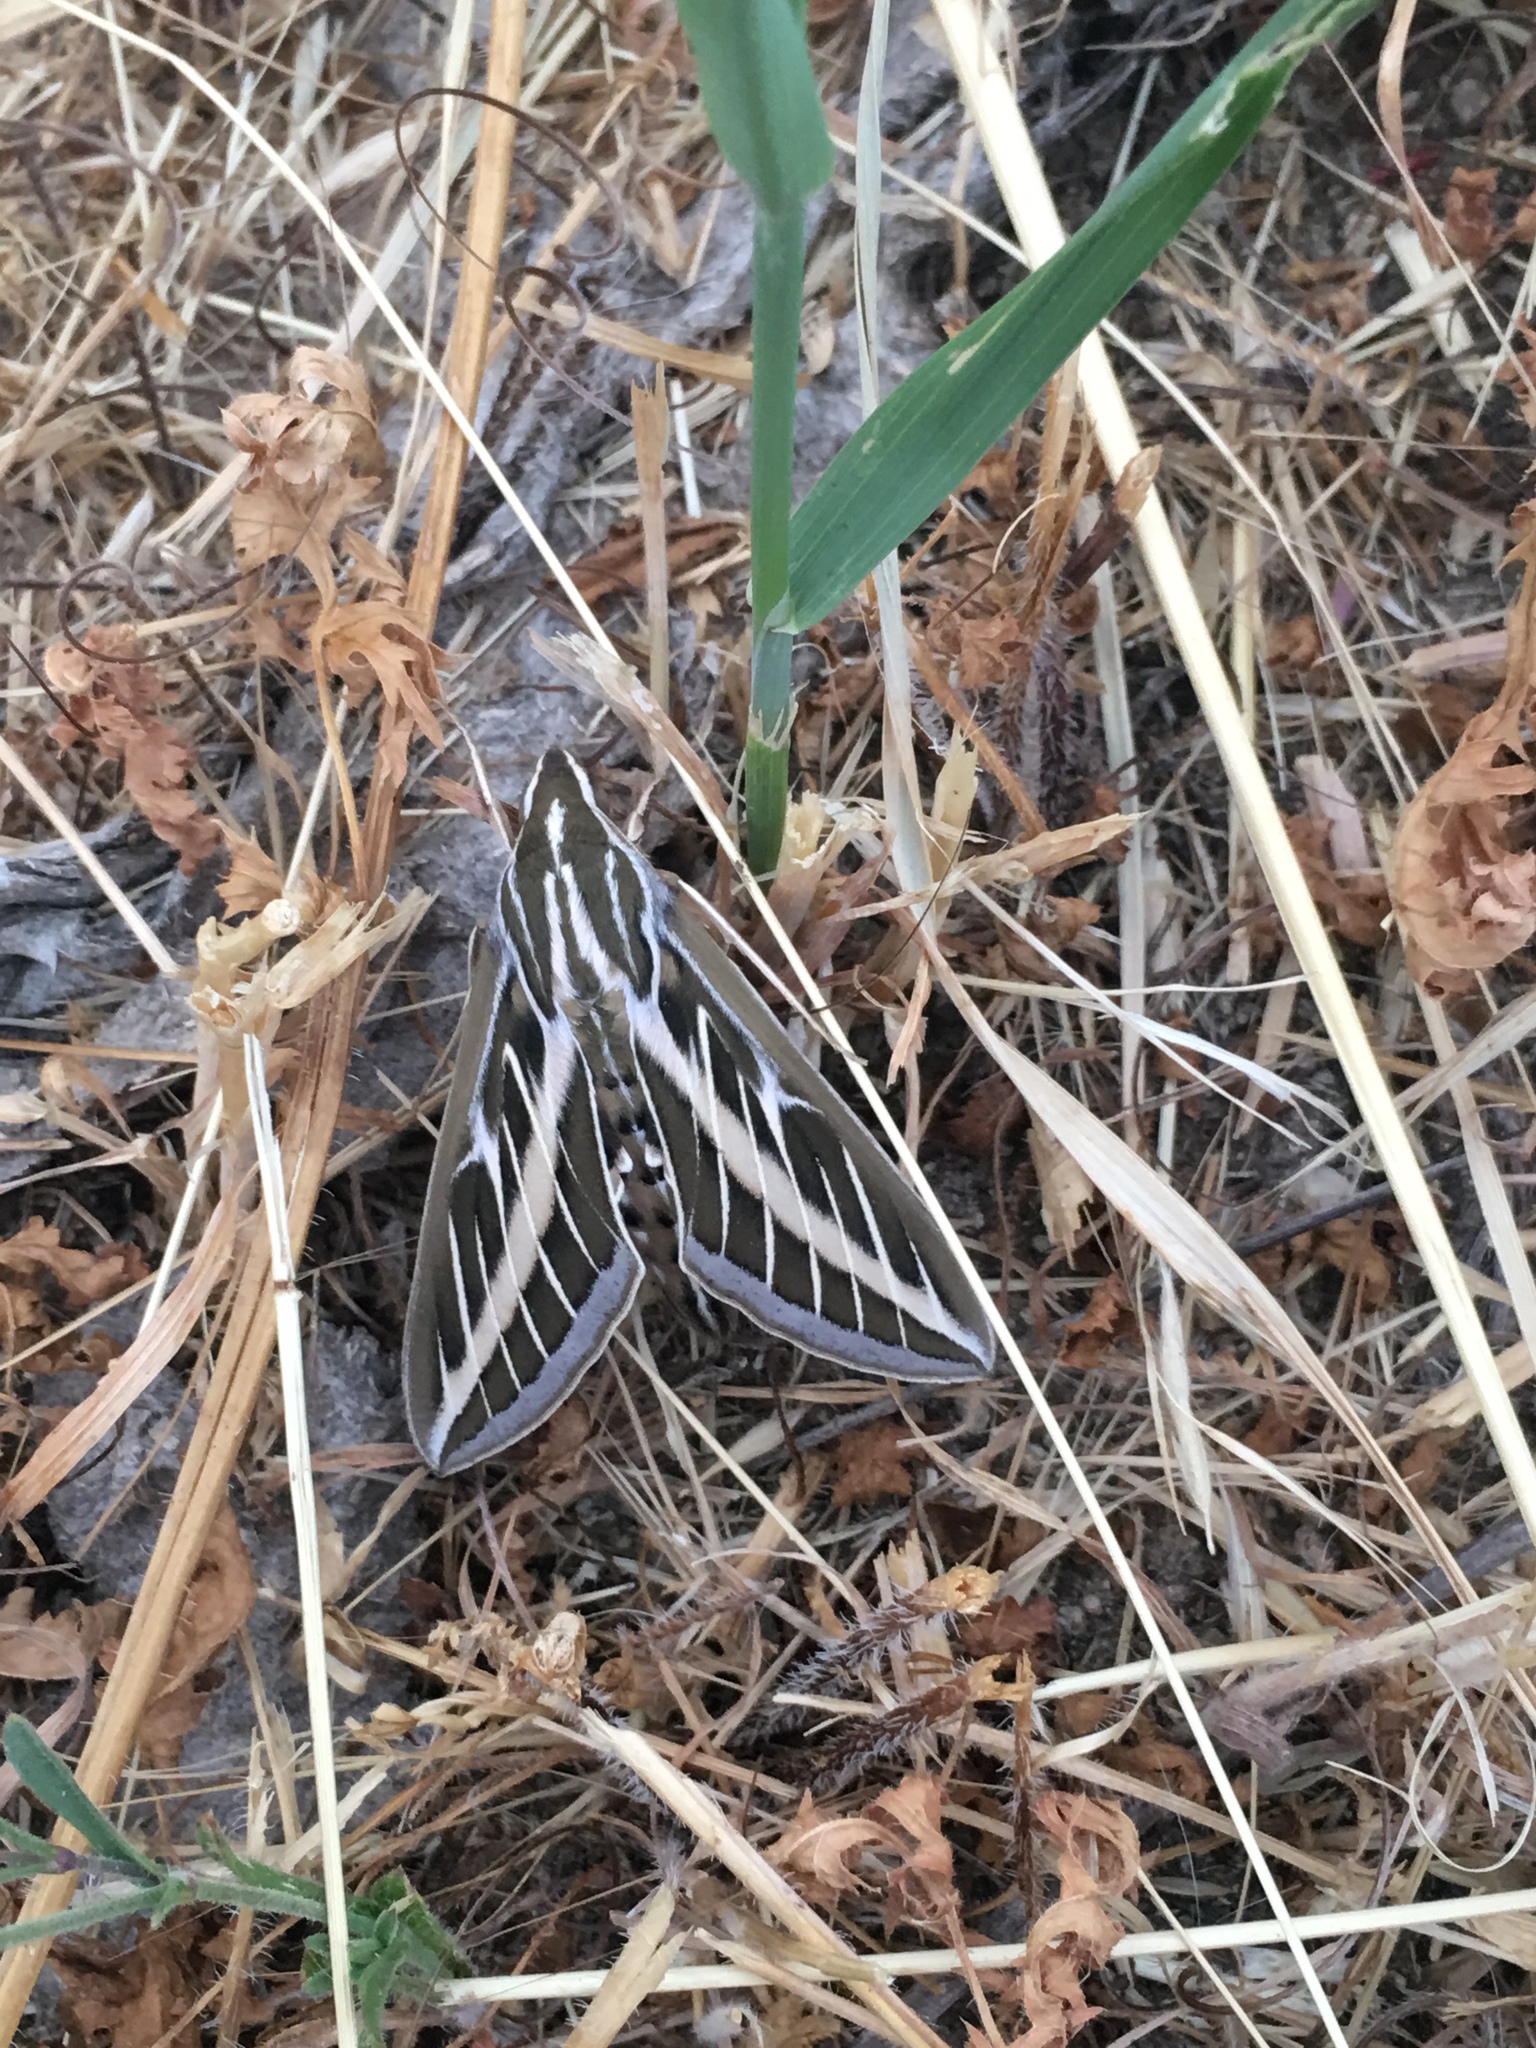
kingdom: Animalia
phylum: Arthropoda
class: Insecta
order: Lepidoptera
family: Sphingidae
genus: Hyles
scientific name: Hyles lineata
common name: White-lined sphinx
